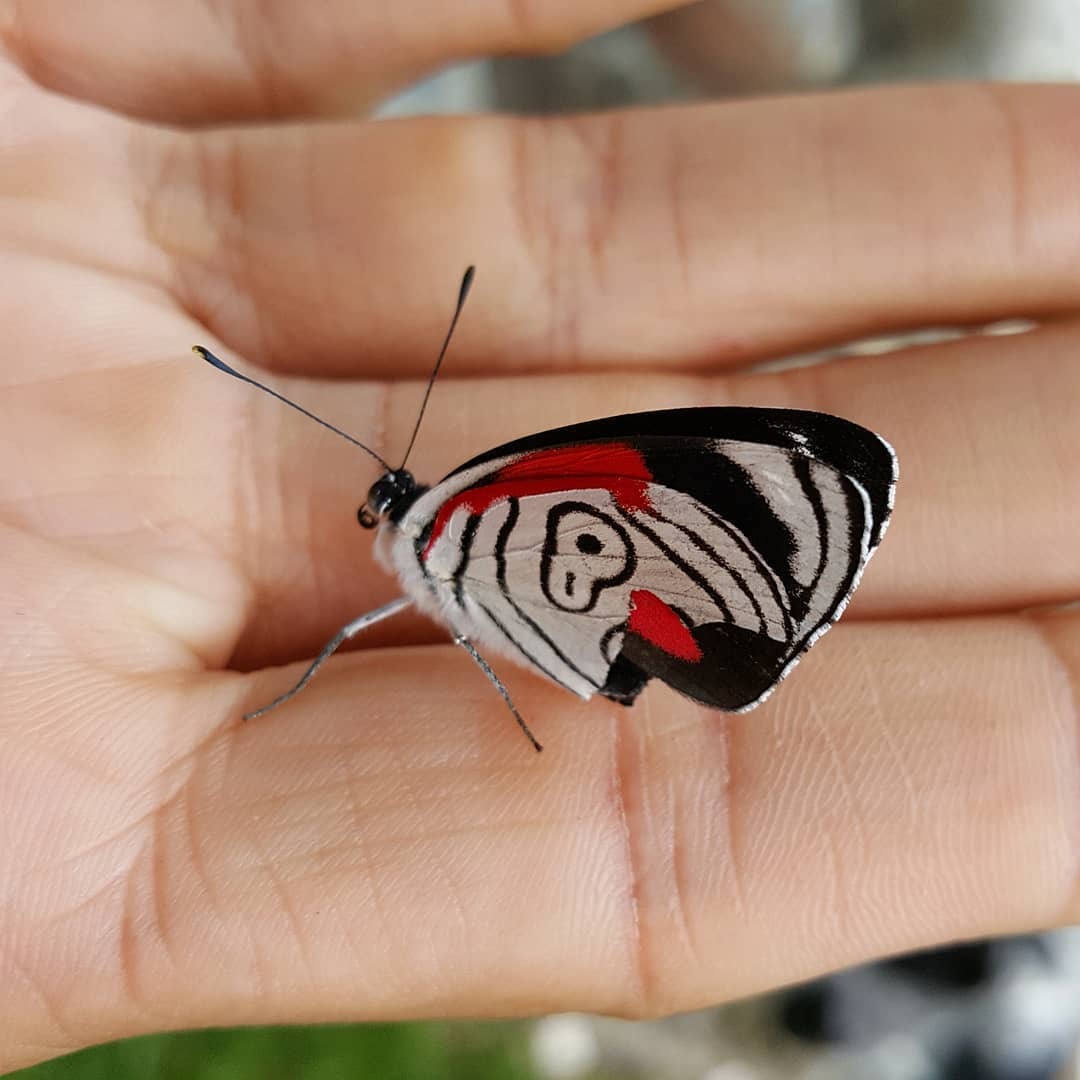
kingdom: Animalia
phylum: Arthropoda
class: Insecta
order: Lepidoptera
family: Nymphalidae
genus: Diaethria
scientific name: Diaethria anna
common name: Anna’s eighty-eight
